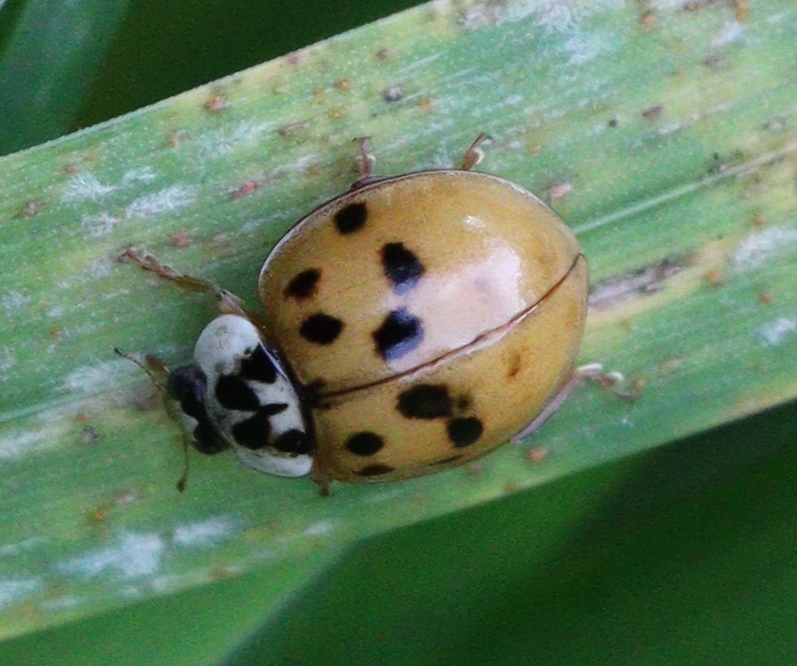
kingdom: Animalia
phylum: Arthropoda
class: Insecta
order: Coleoptera
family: Coccinellidae
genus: Harmonia
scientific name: Harmonia axyridis
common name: Harlequin ladybird
